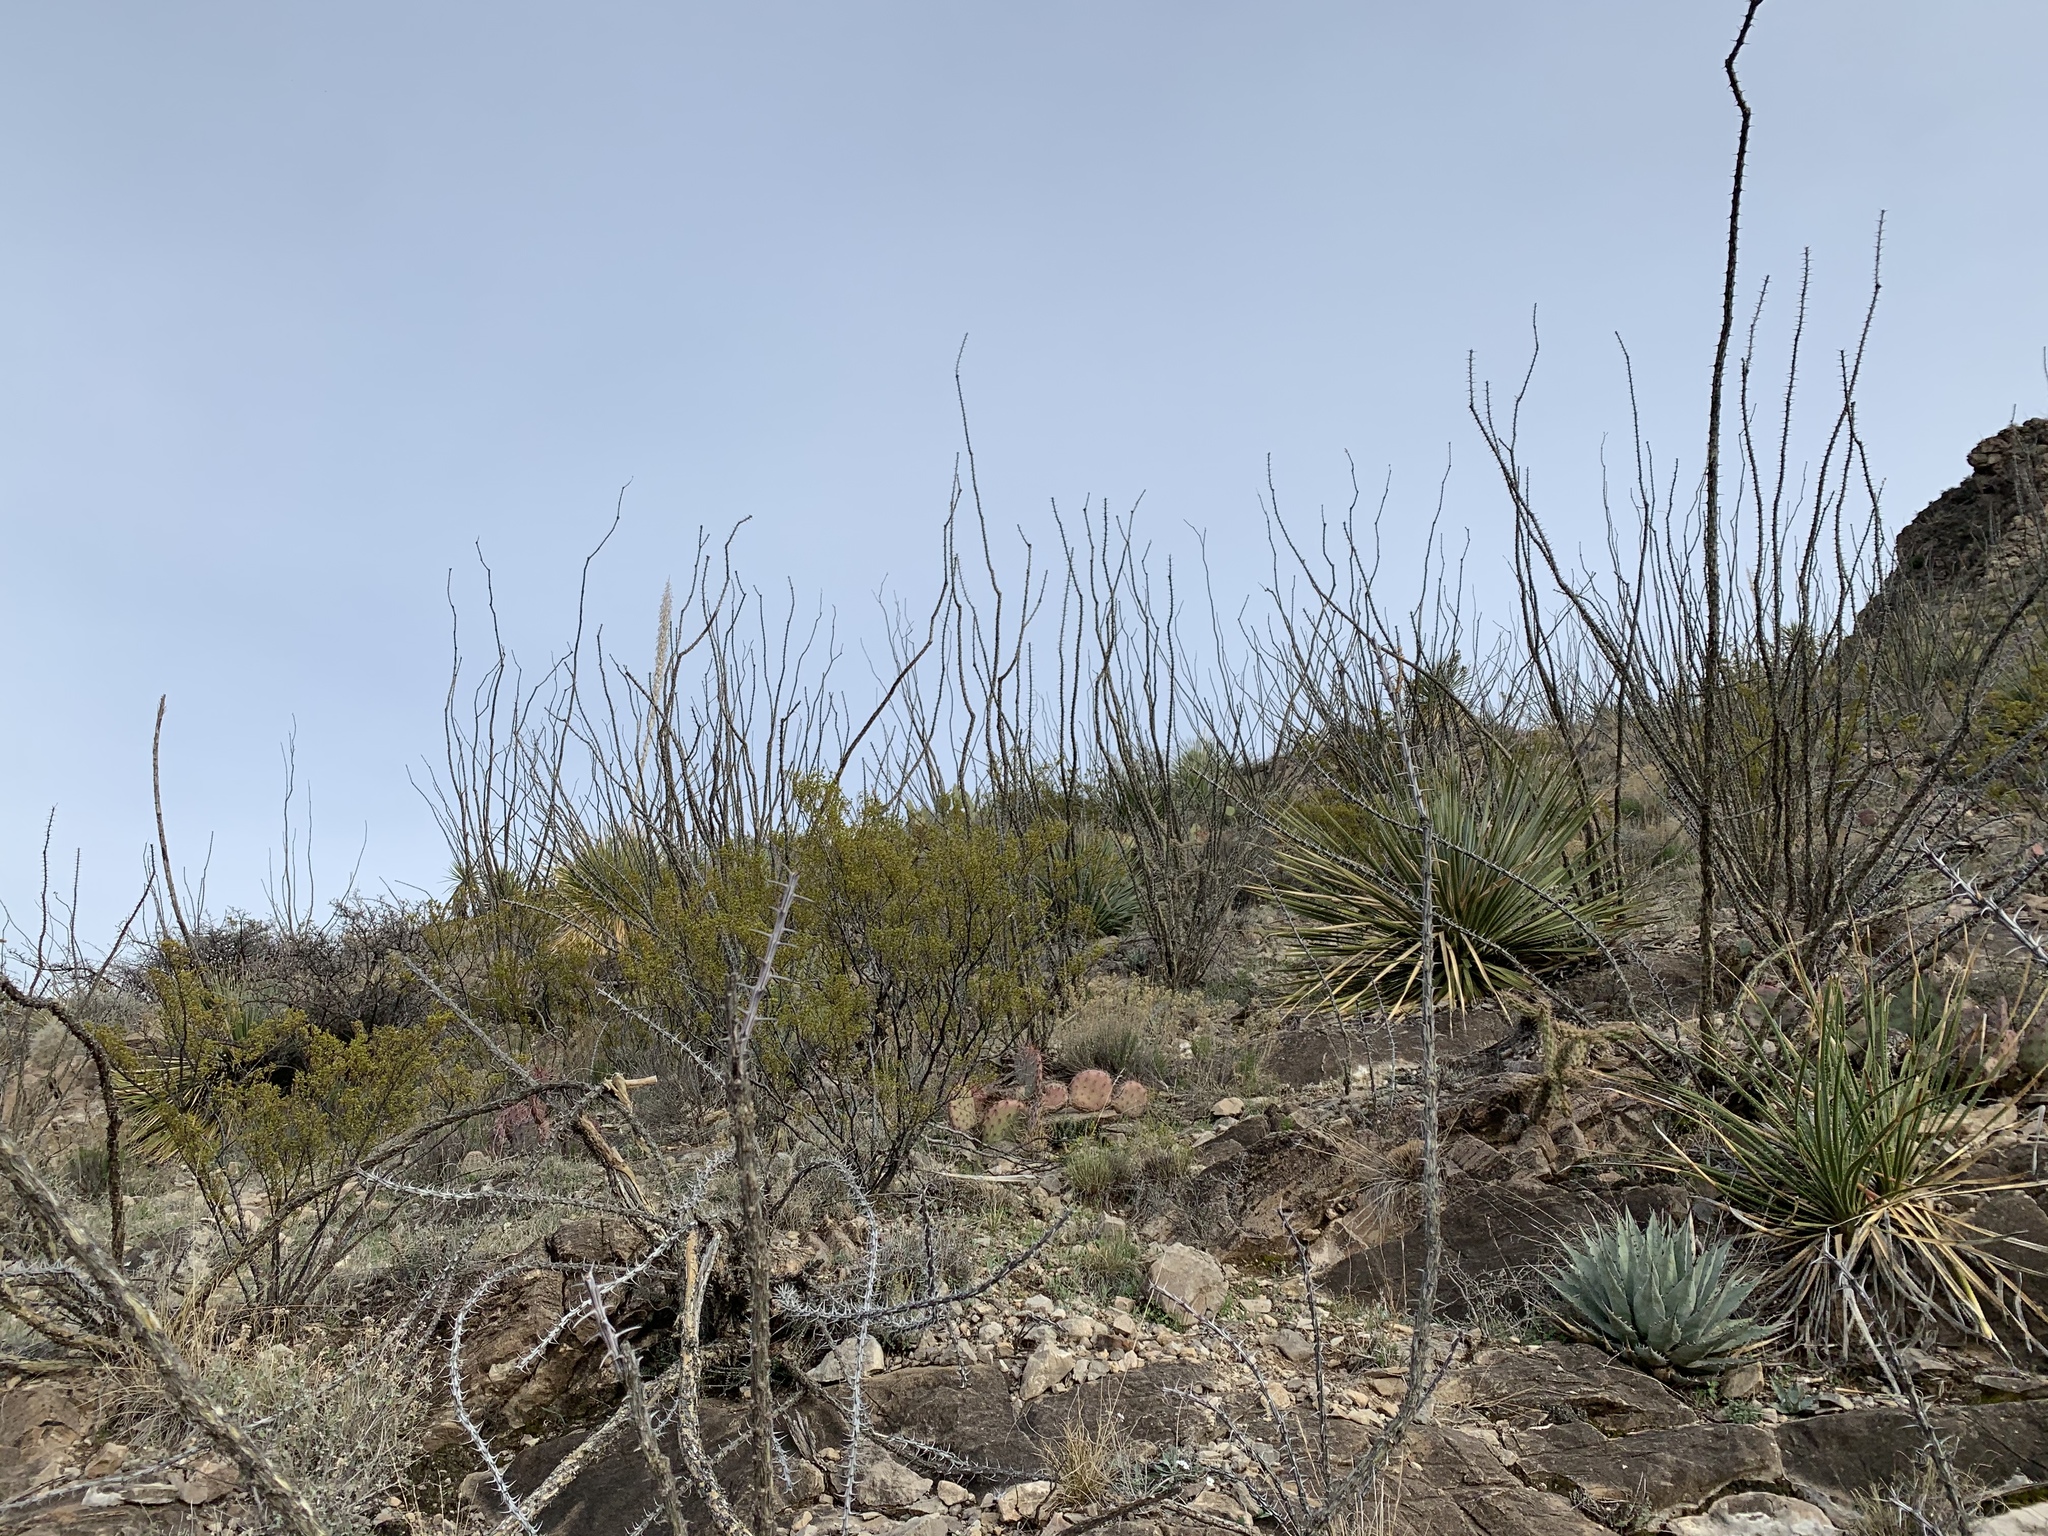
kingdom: Plantae
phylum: Tracheophyta
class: Magnoliopsida
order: Ericales
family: Fouquieriaceae
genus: Fouquieria
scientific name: Fouquieria splendens
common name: Vine-cactus
